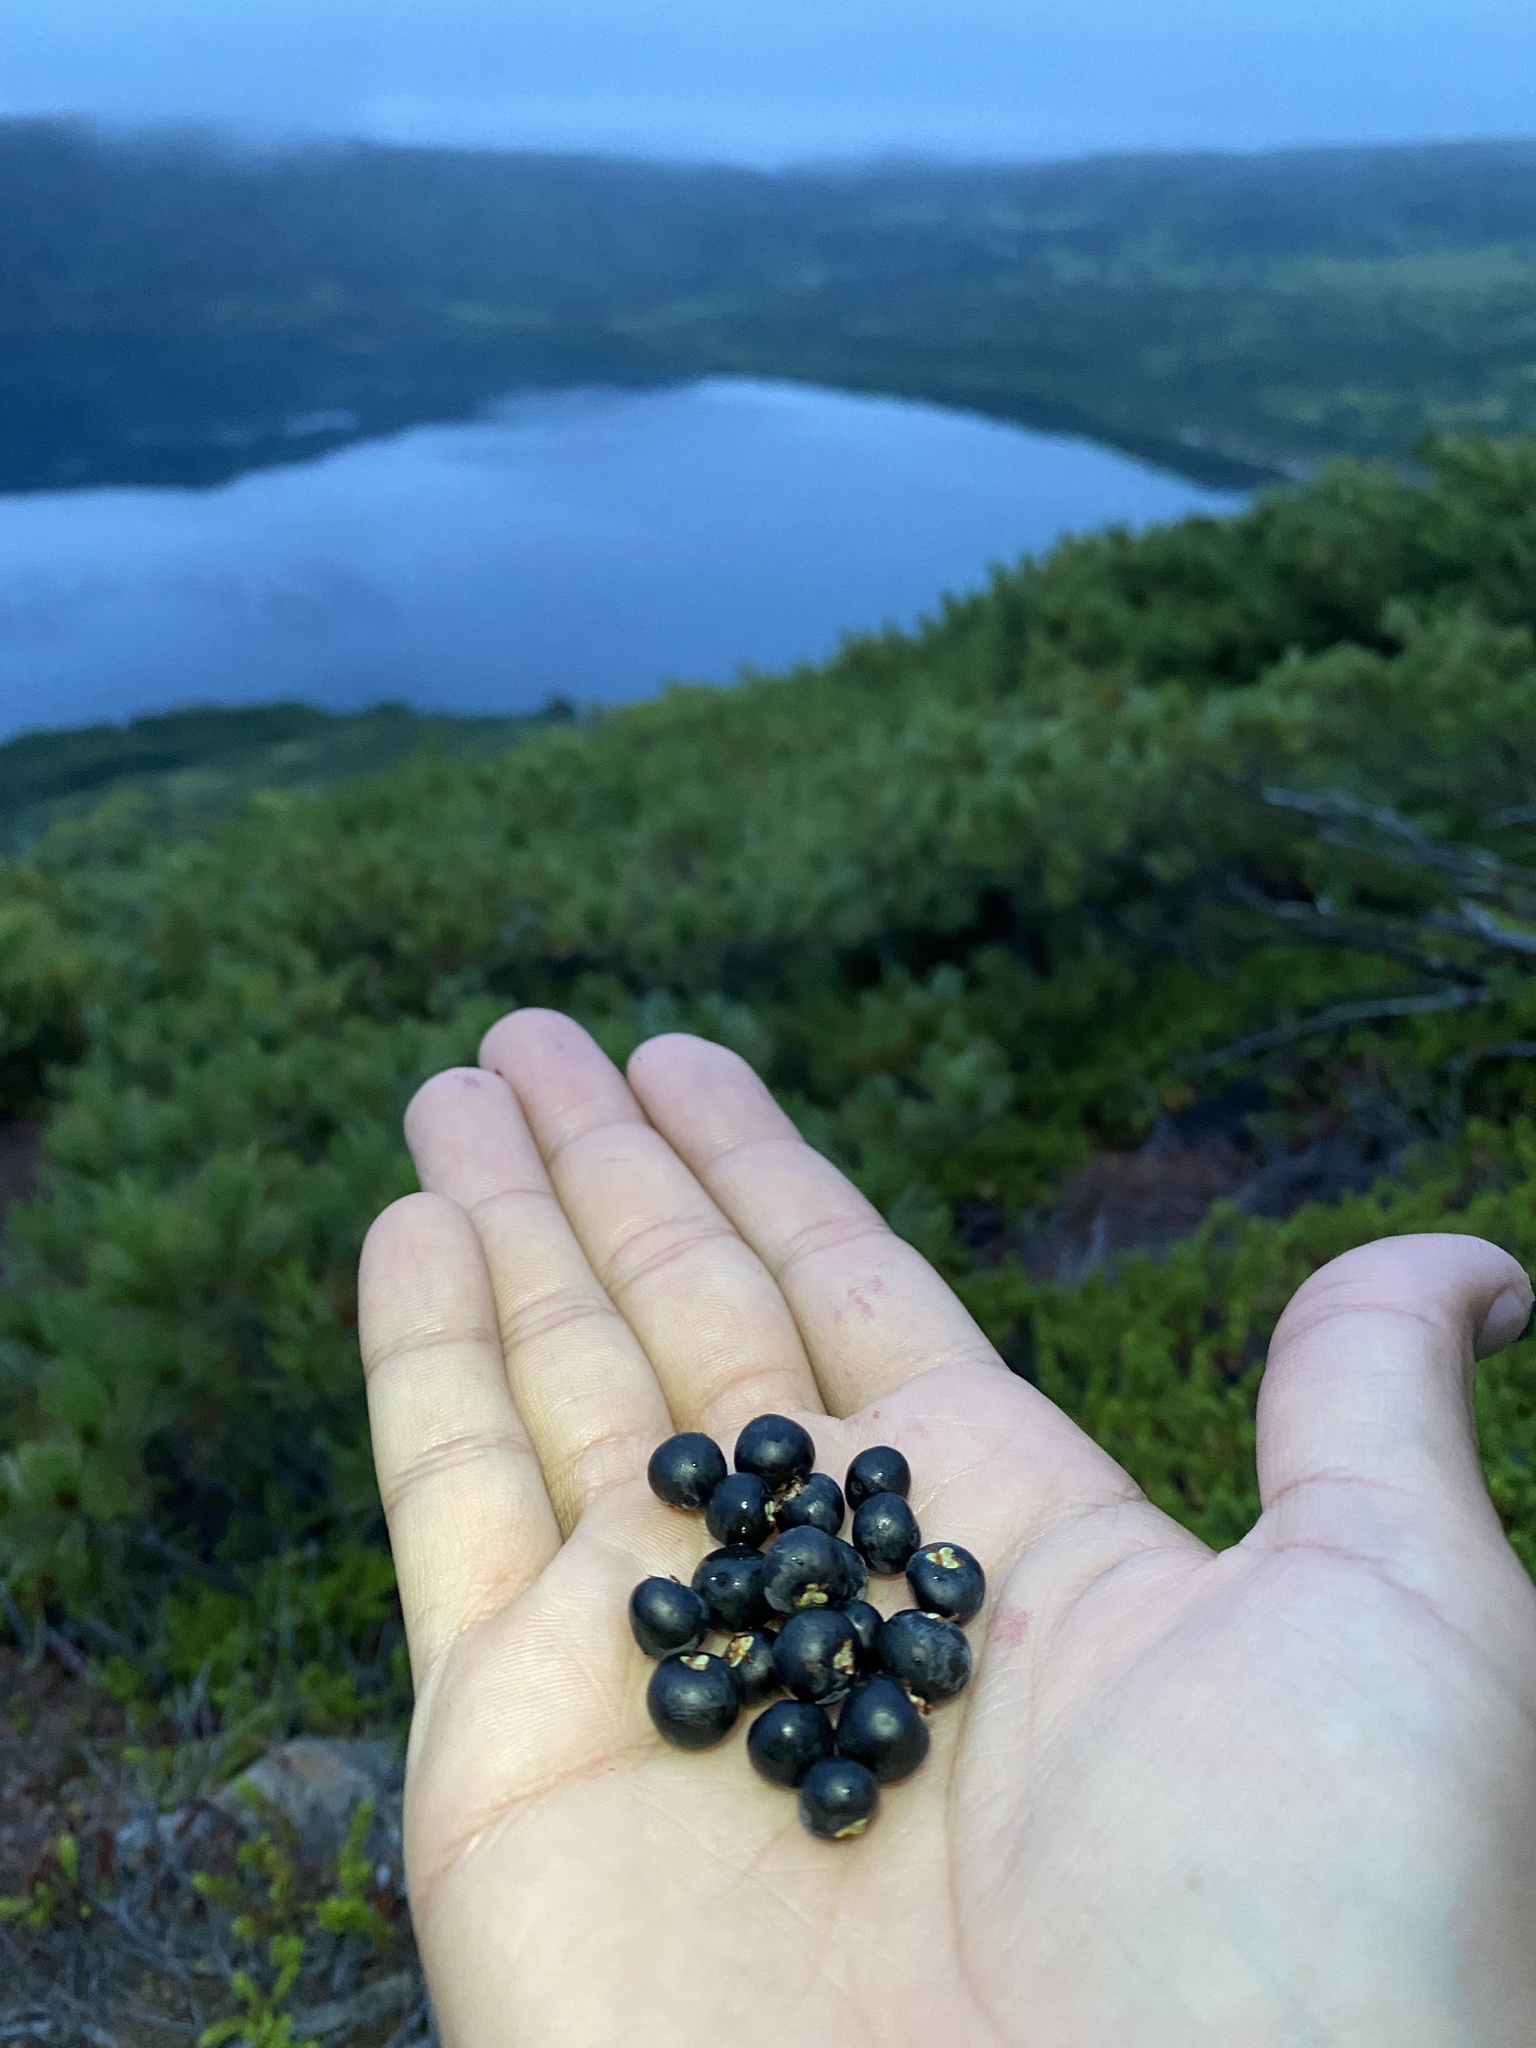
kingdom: Plantae
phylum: Tracheophyta
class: Magnoliopsida
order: Ericales
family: Ericaceae
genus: Empetrum
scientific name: Empetrum nigrum
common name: Black crowberry
